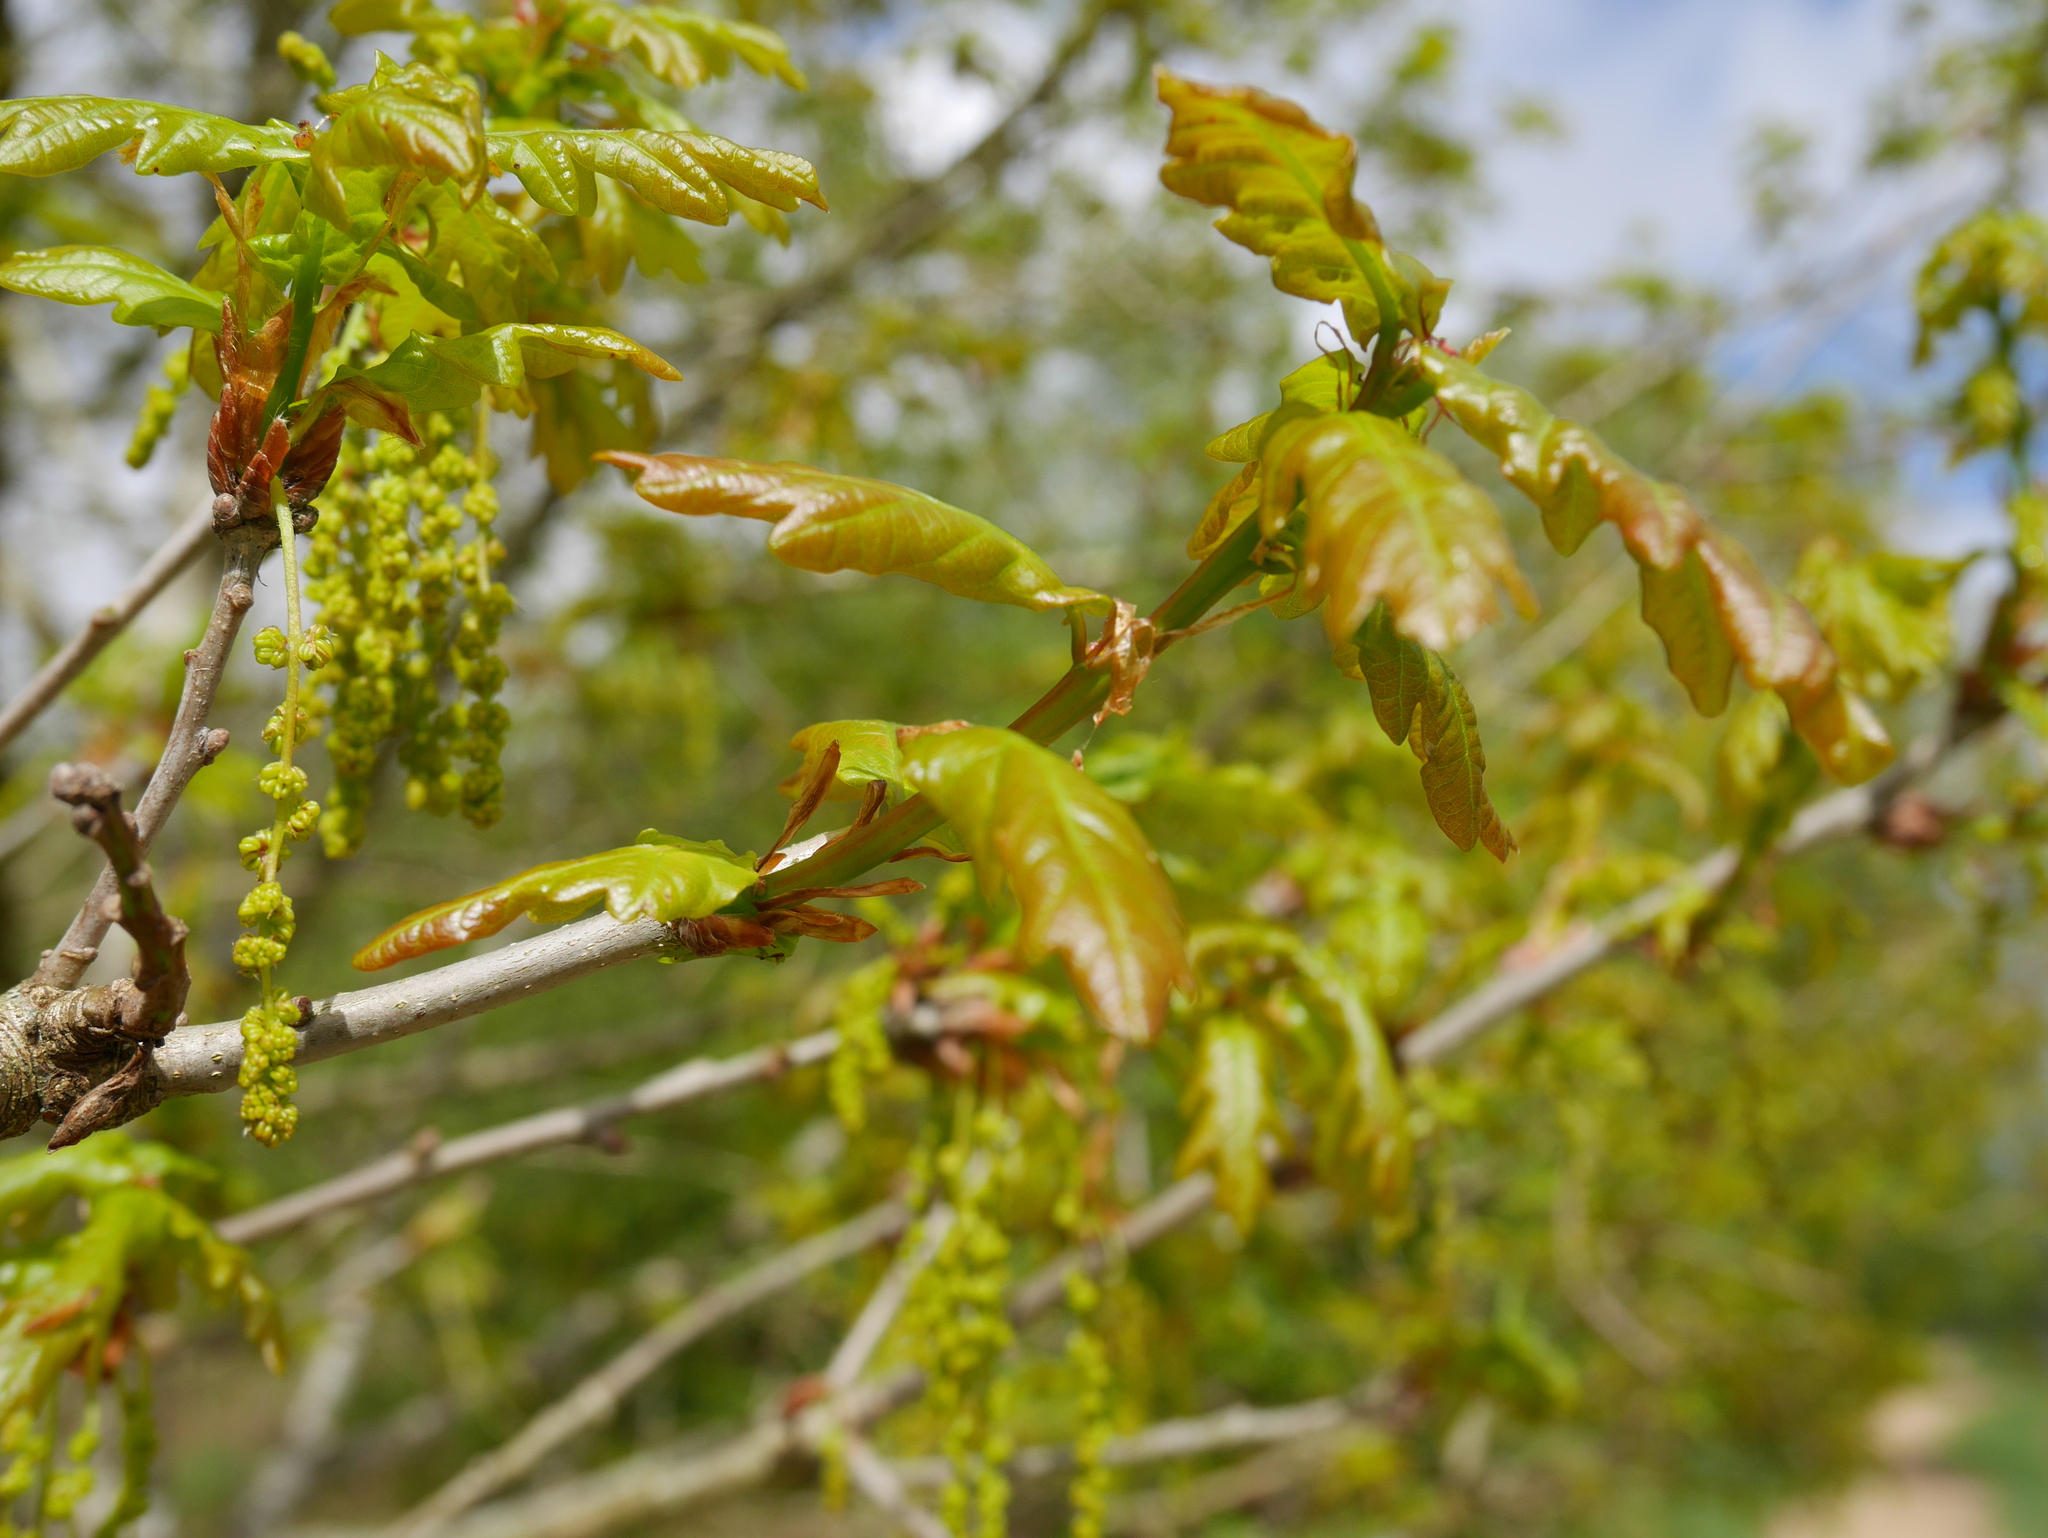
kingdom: Plantae
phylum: Tracheophyta
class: Magnoliopsida
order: Fagales
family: Fagaceae
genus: Quercus
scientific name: Quercus robur
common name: Pedunculate oak
